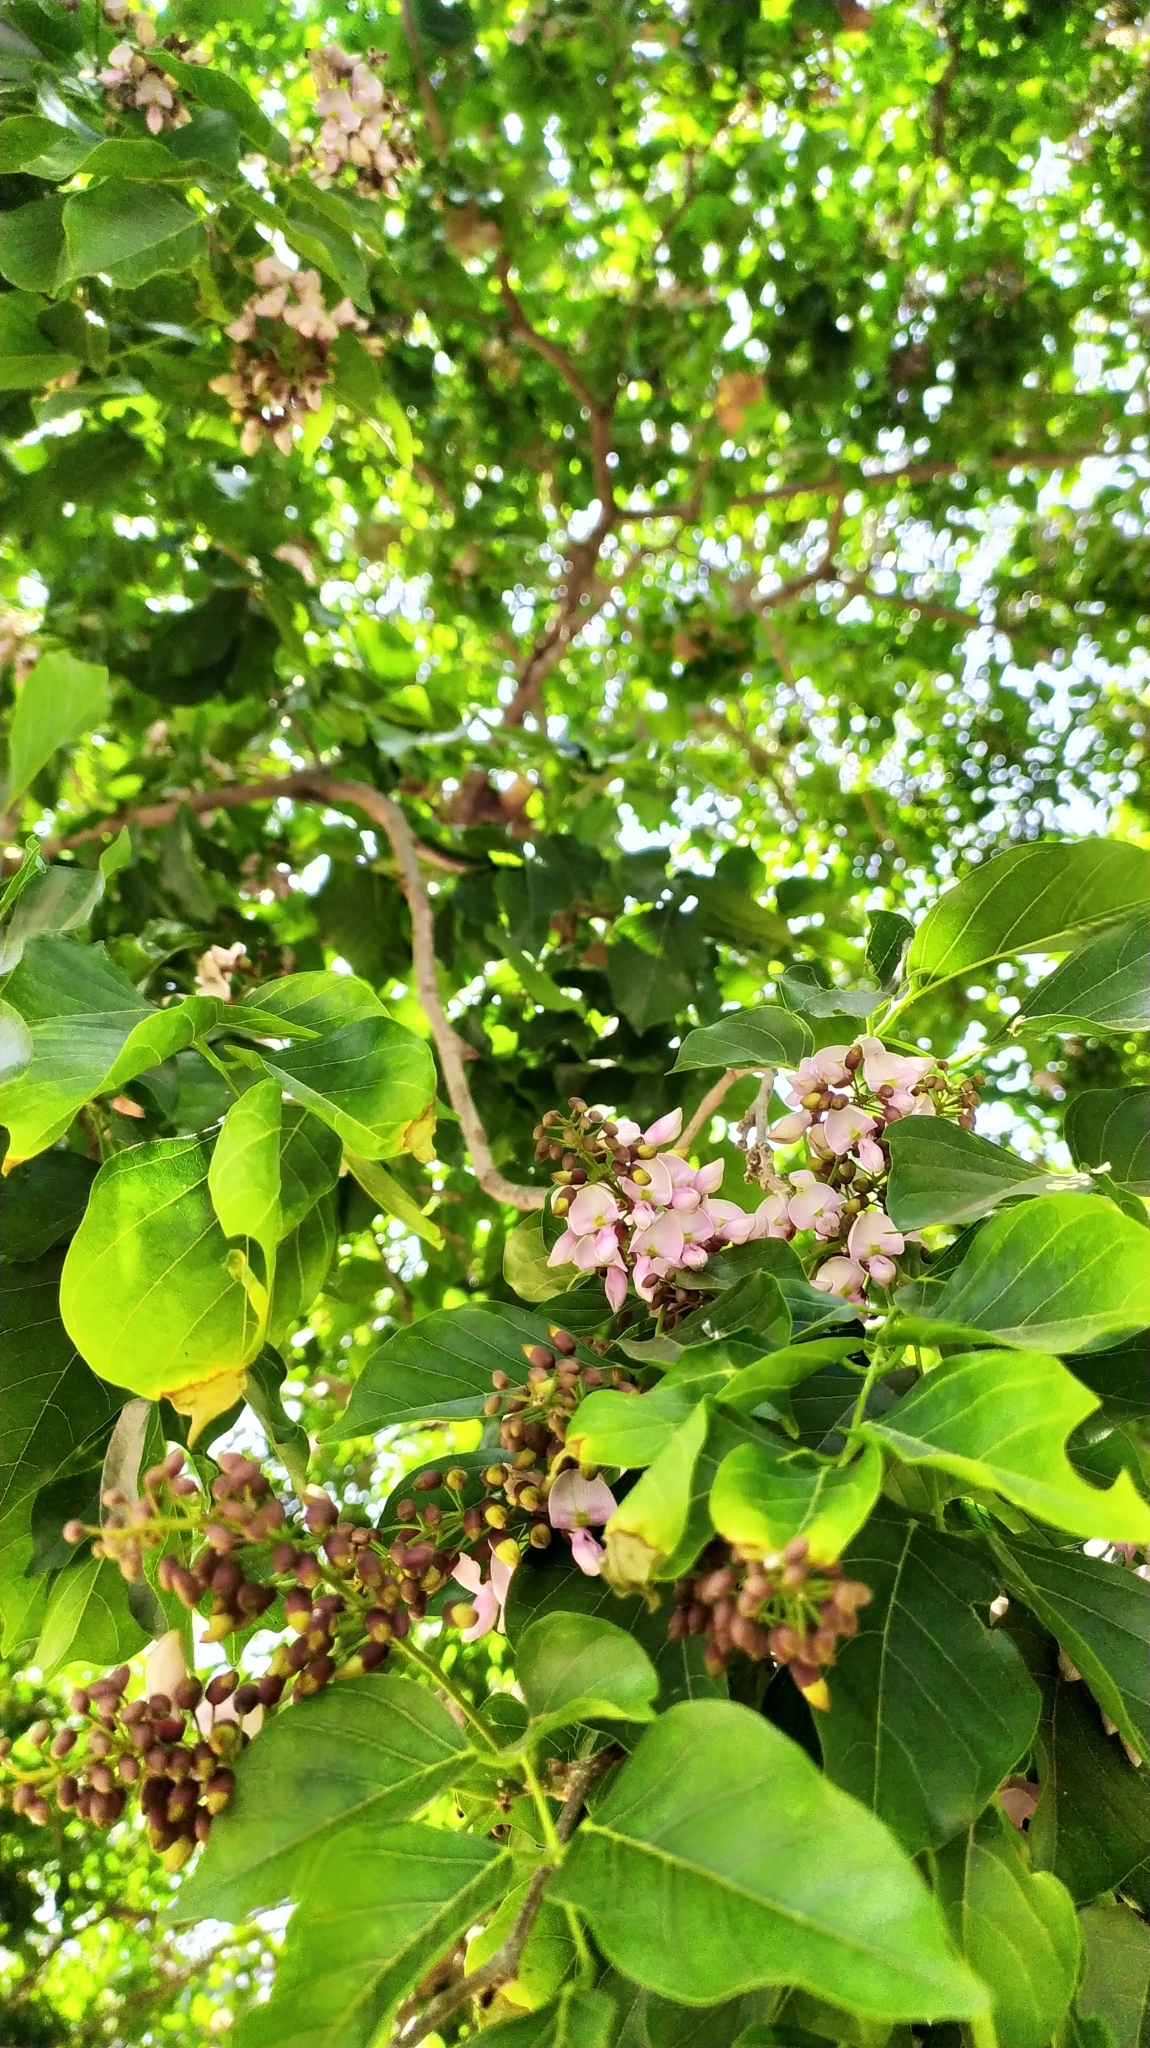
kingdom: Plantae
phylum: Tracheophyta
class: Magnoliopsida
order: Fabales
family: Fabaceae
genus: Pongamia
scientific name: Pongamia pinnata
